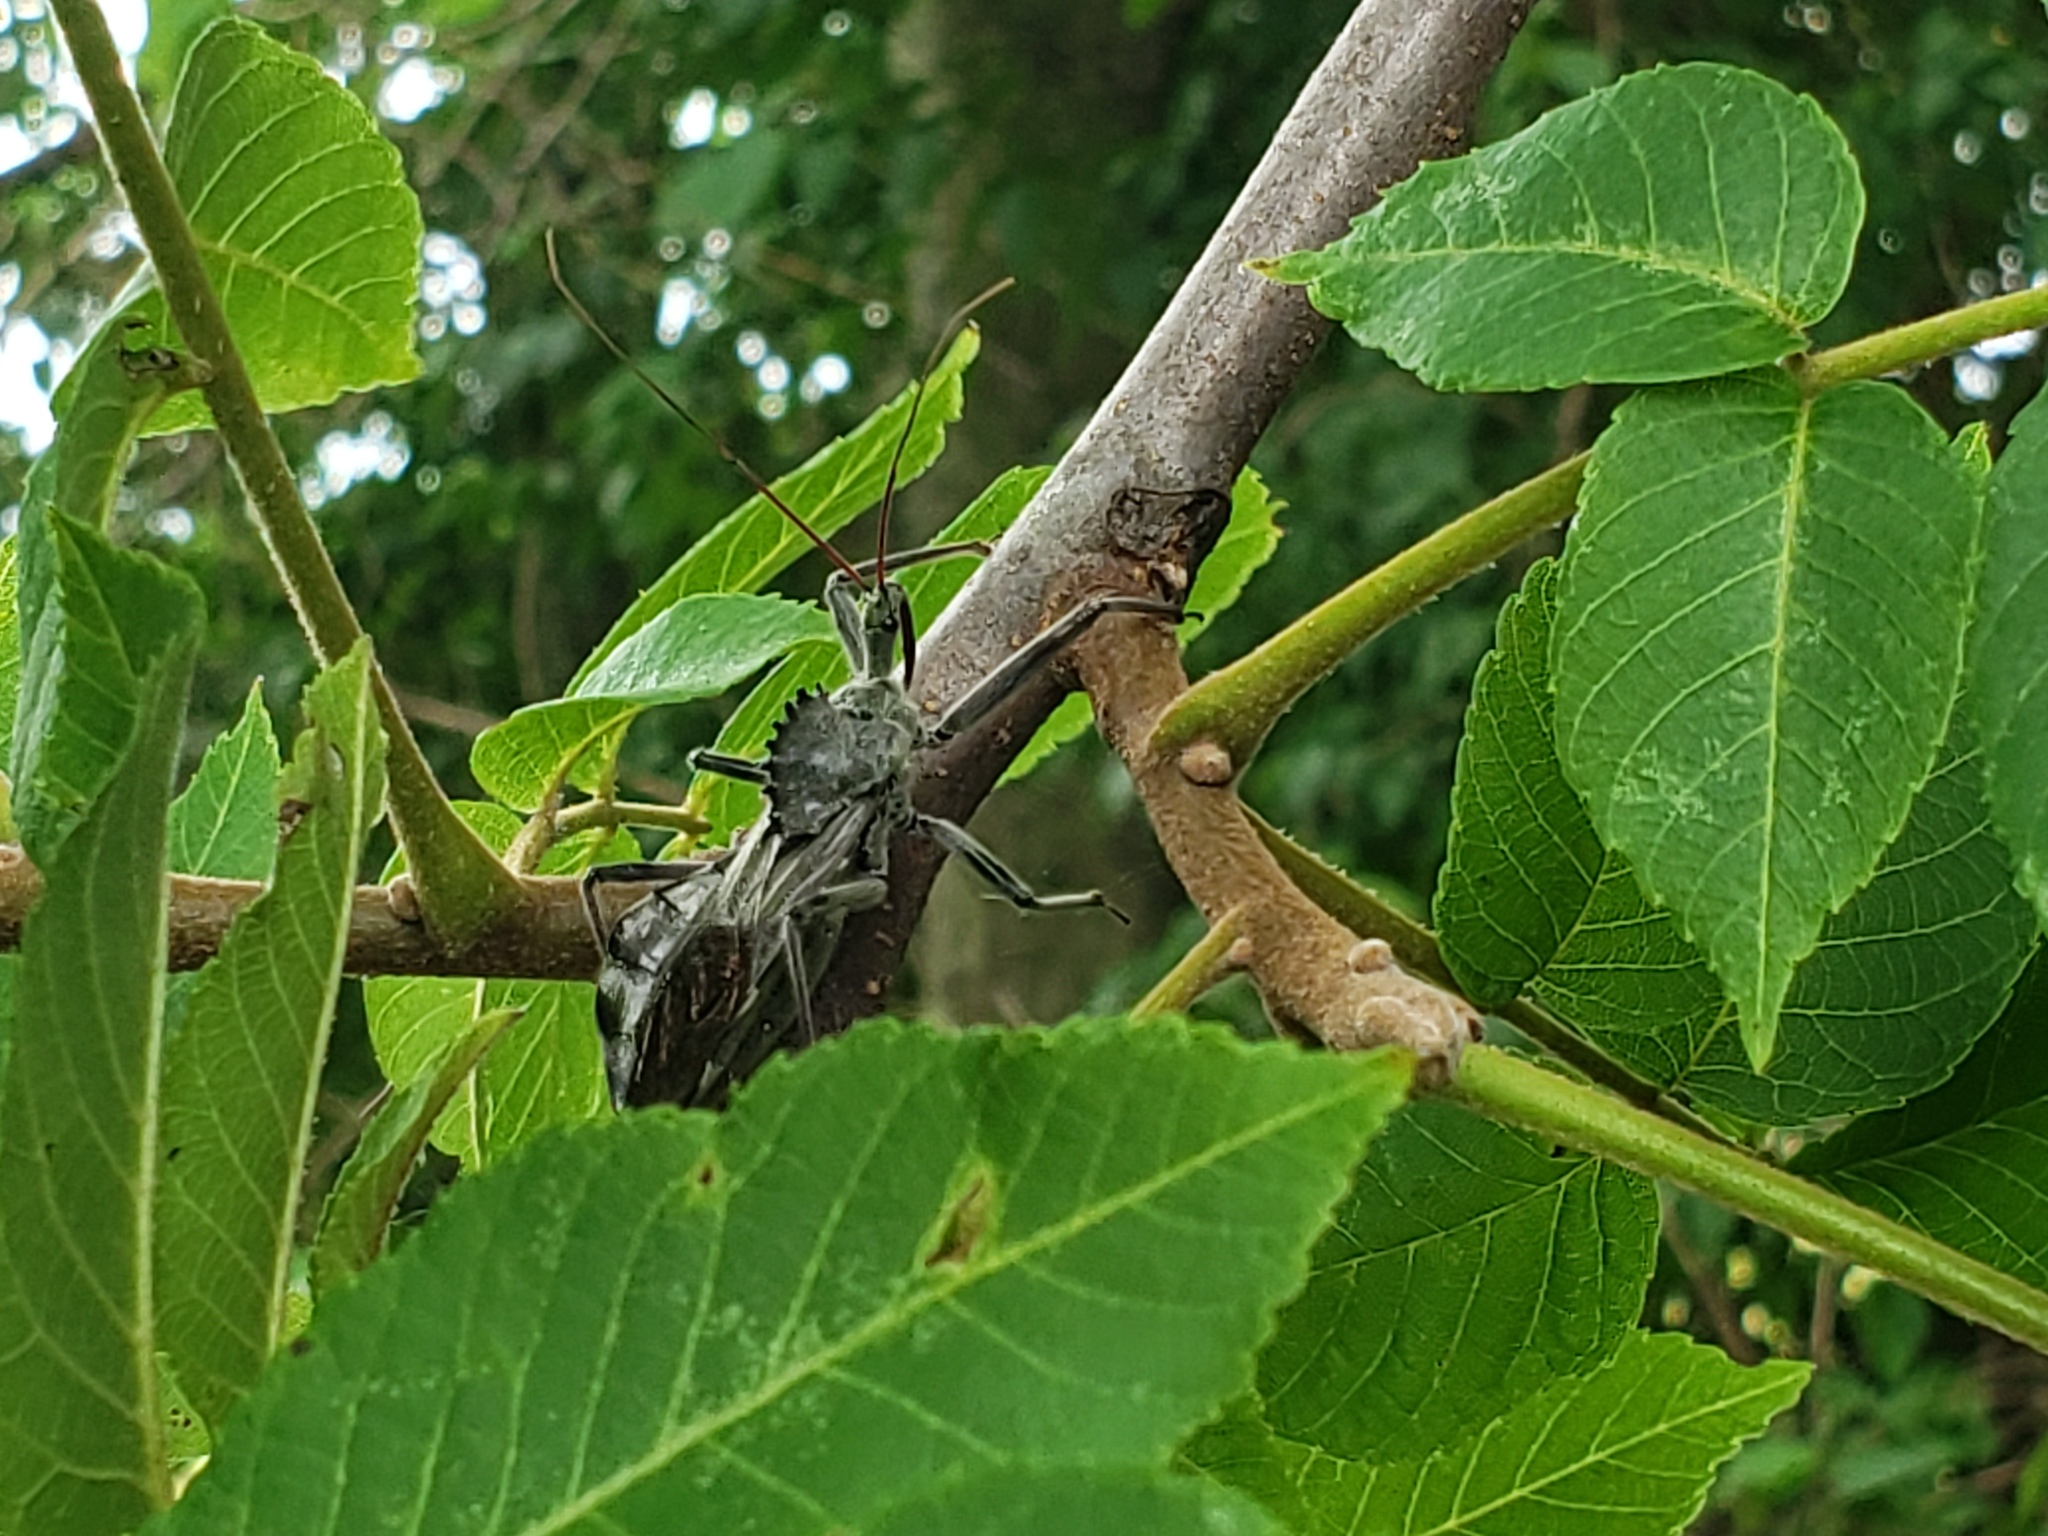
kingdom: Animalia
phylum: Arthropoda
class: Insecta
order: Hemiptera
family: Reduviidae
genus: Arilus
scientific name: Arilus cristatus
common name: North american wheel bug
